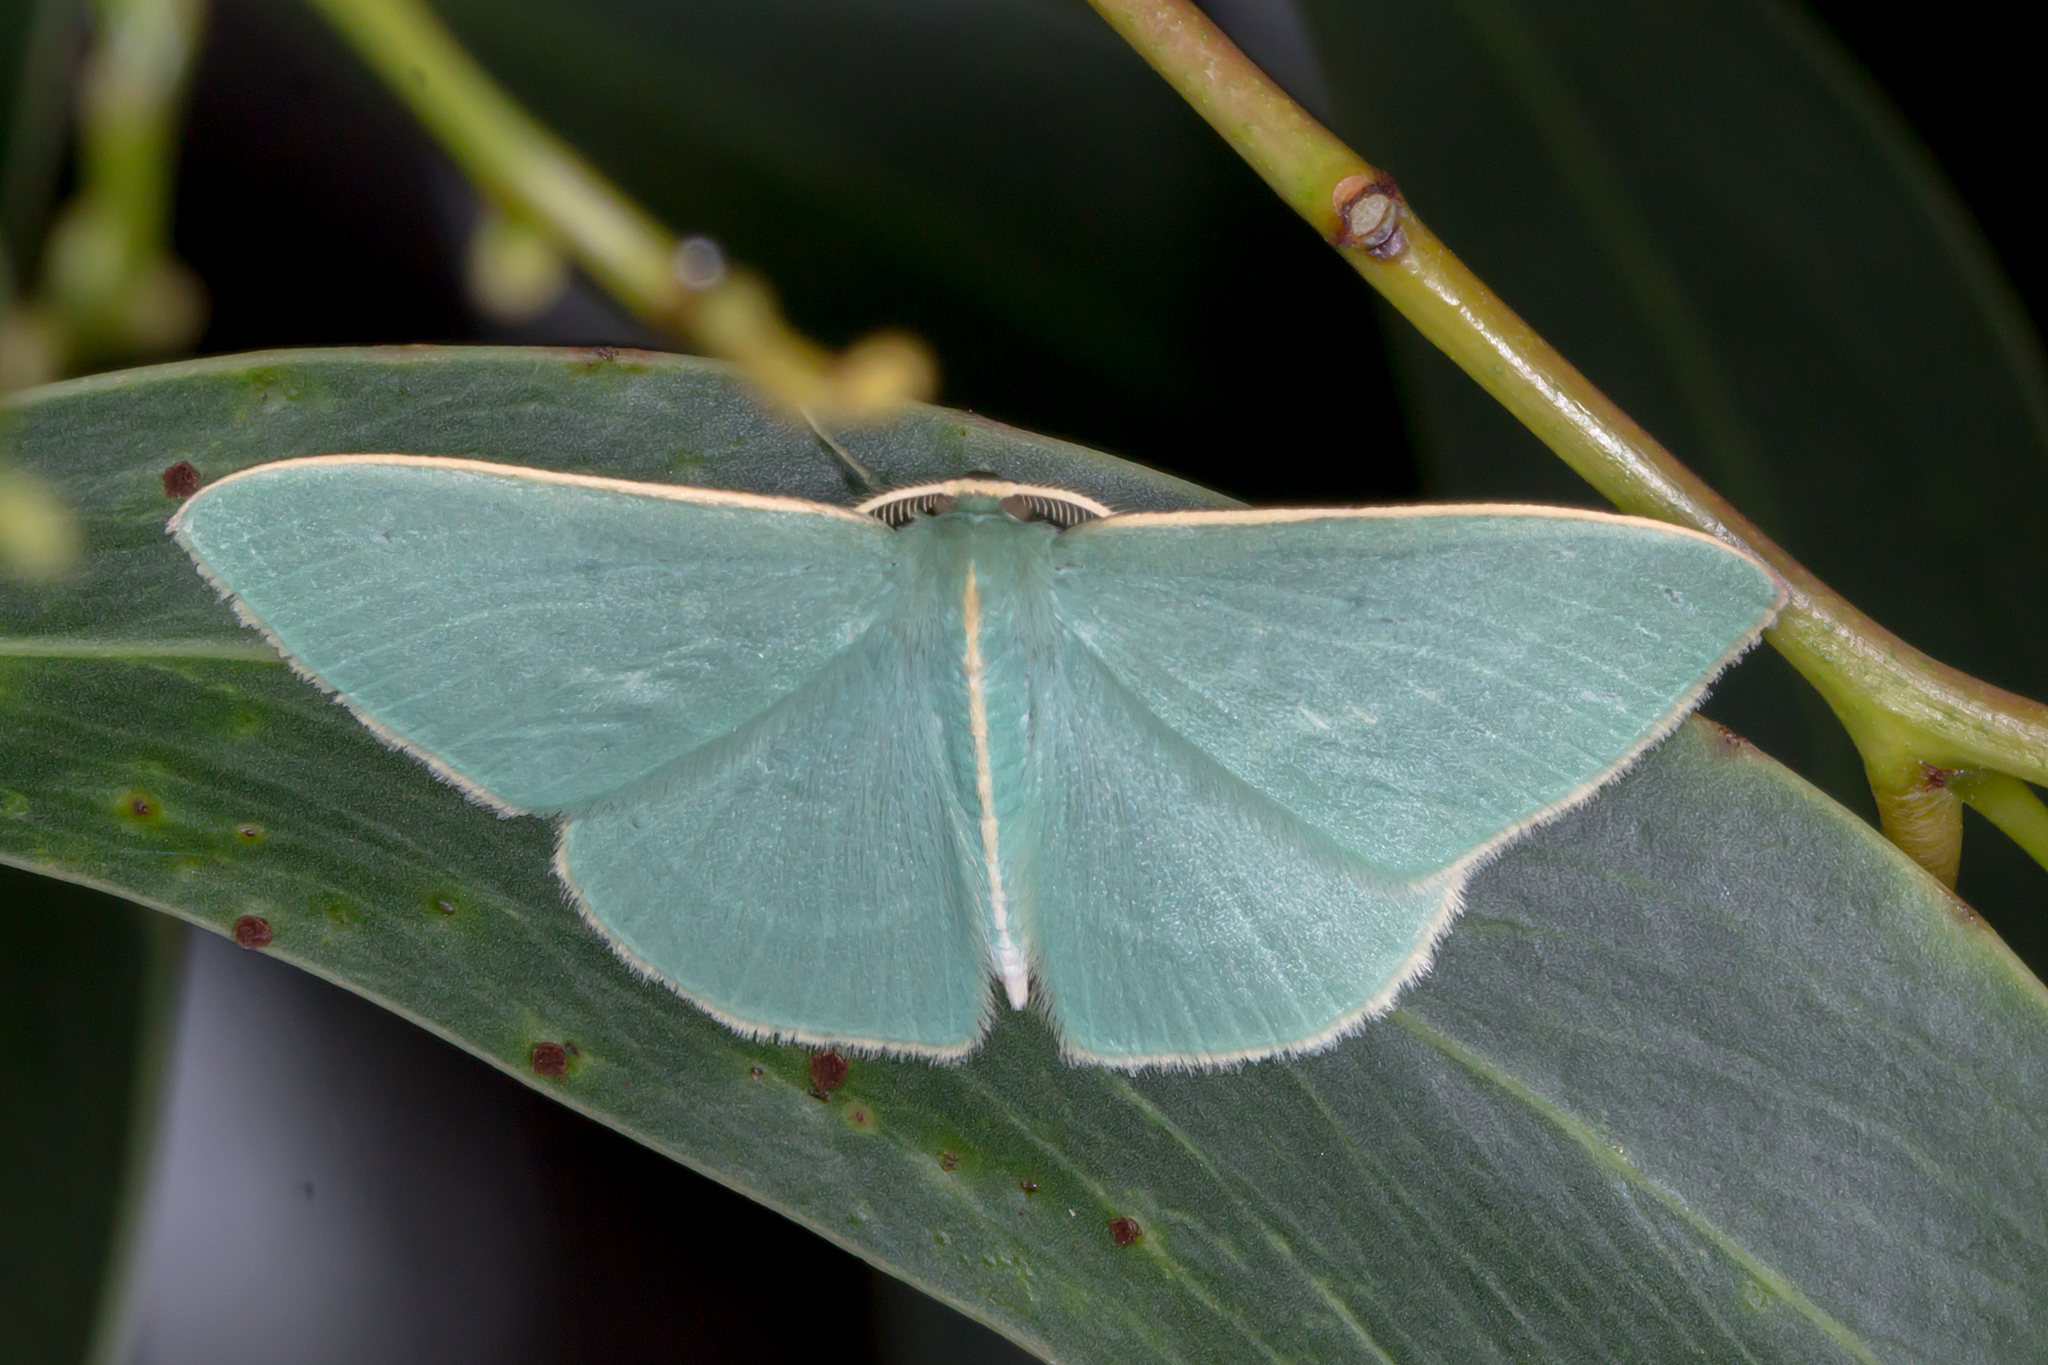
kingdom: Animalia
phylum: Arthropoda
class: Insecta
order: Lepidoptera
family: Geometridae
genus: Chlorocoma
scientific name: Chlorocoma stereota
